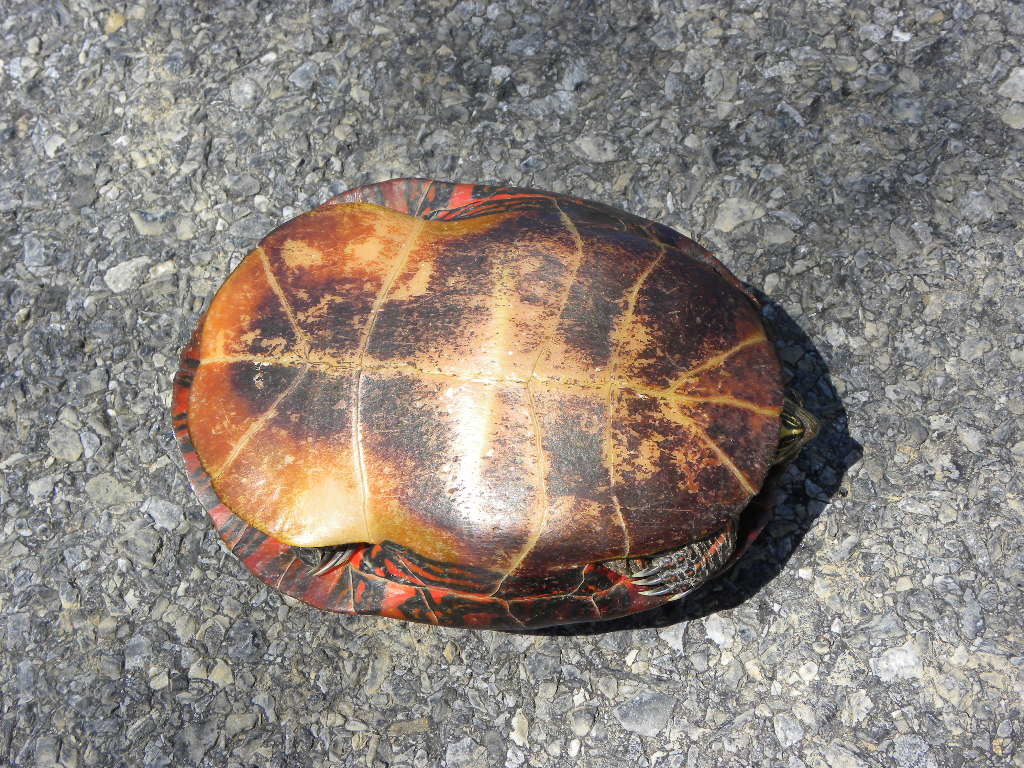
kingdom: Animalia
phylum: Chordata
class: Testudines
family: Emydidae
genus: Chrysemys
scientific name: Chrysemys picta
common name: Painted turtle
